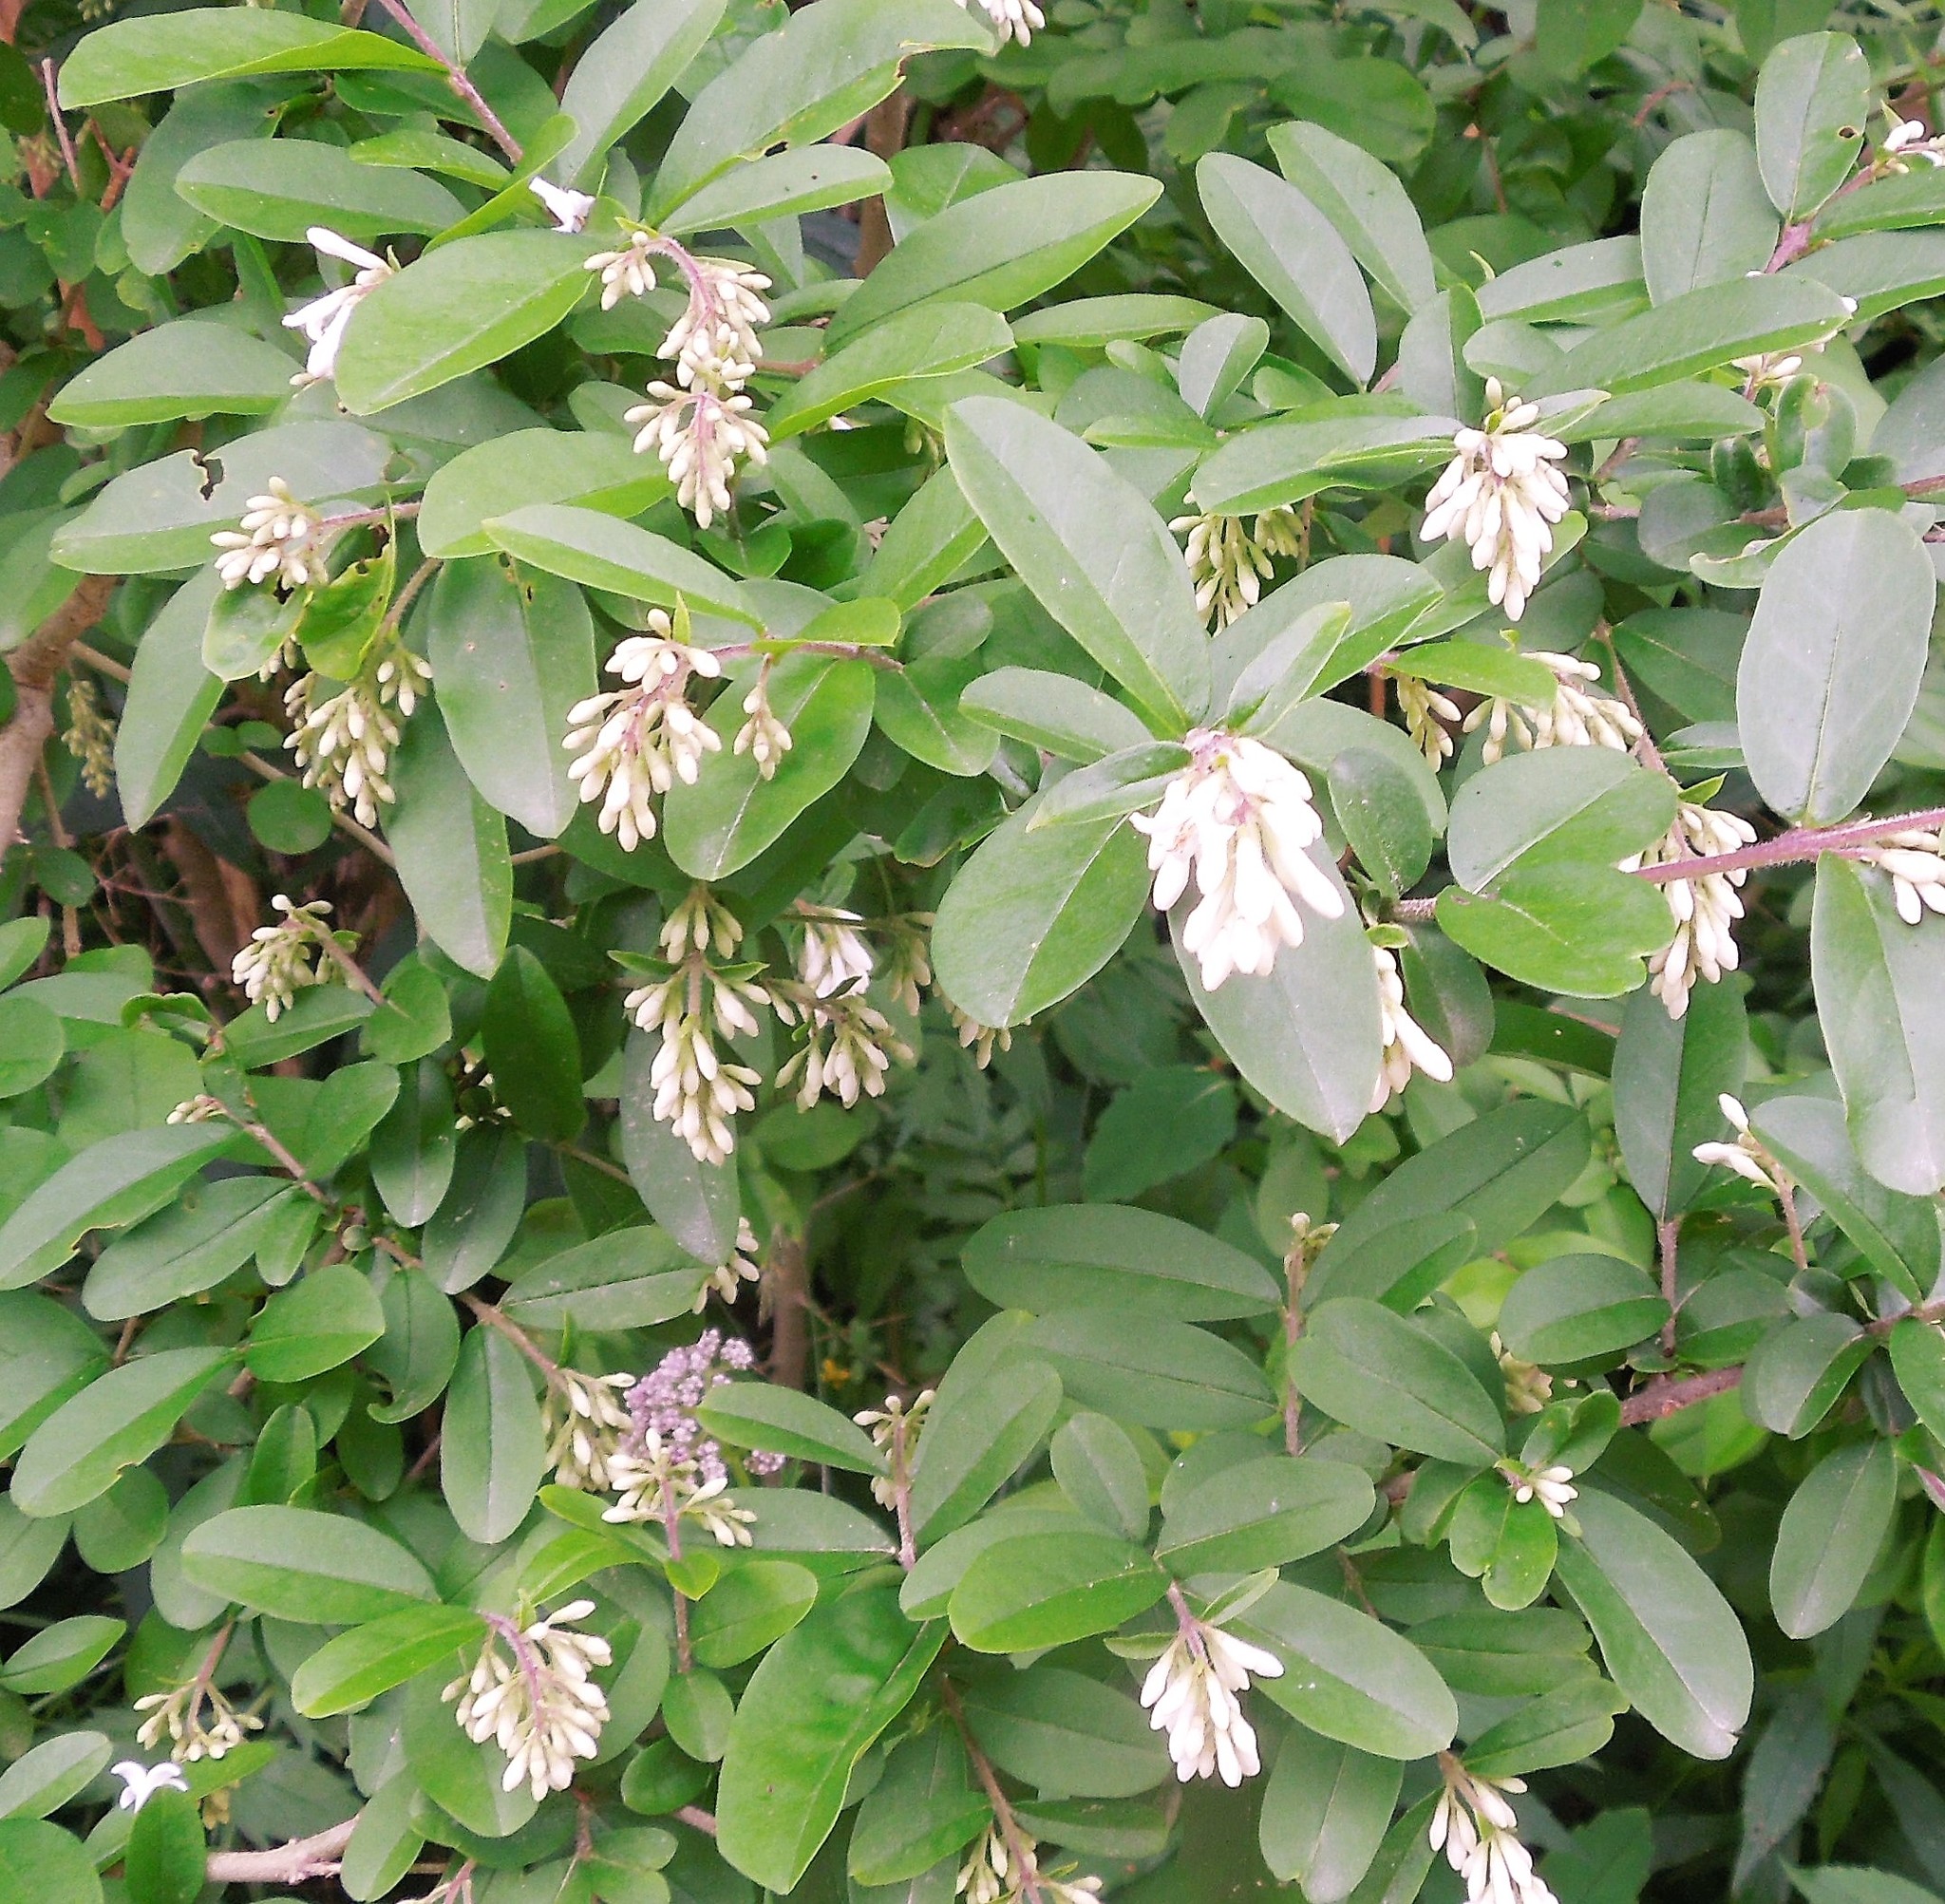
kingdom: Plantae
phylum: Tracheophyta
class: Magnoliopsida
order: Lamiales
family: Oleaceae
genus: Ligustrum
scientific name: Ligustrum obtusifolium
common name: Border privet
